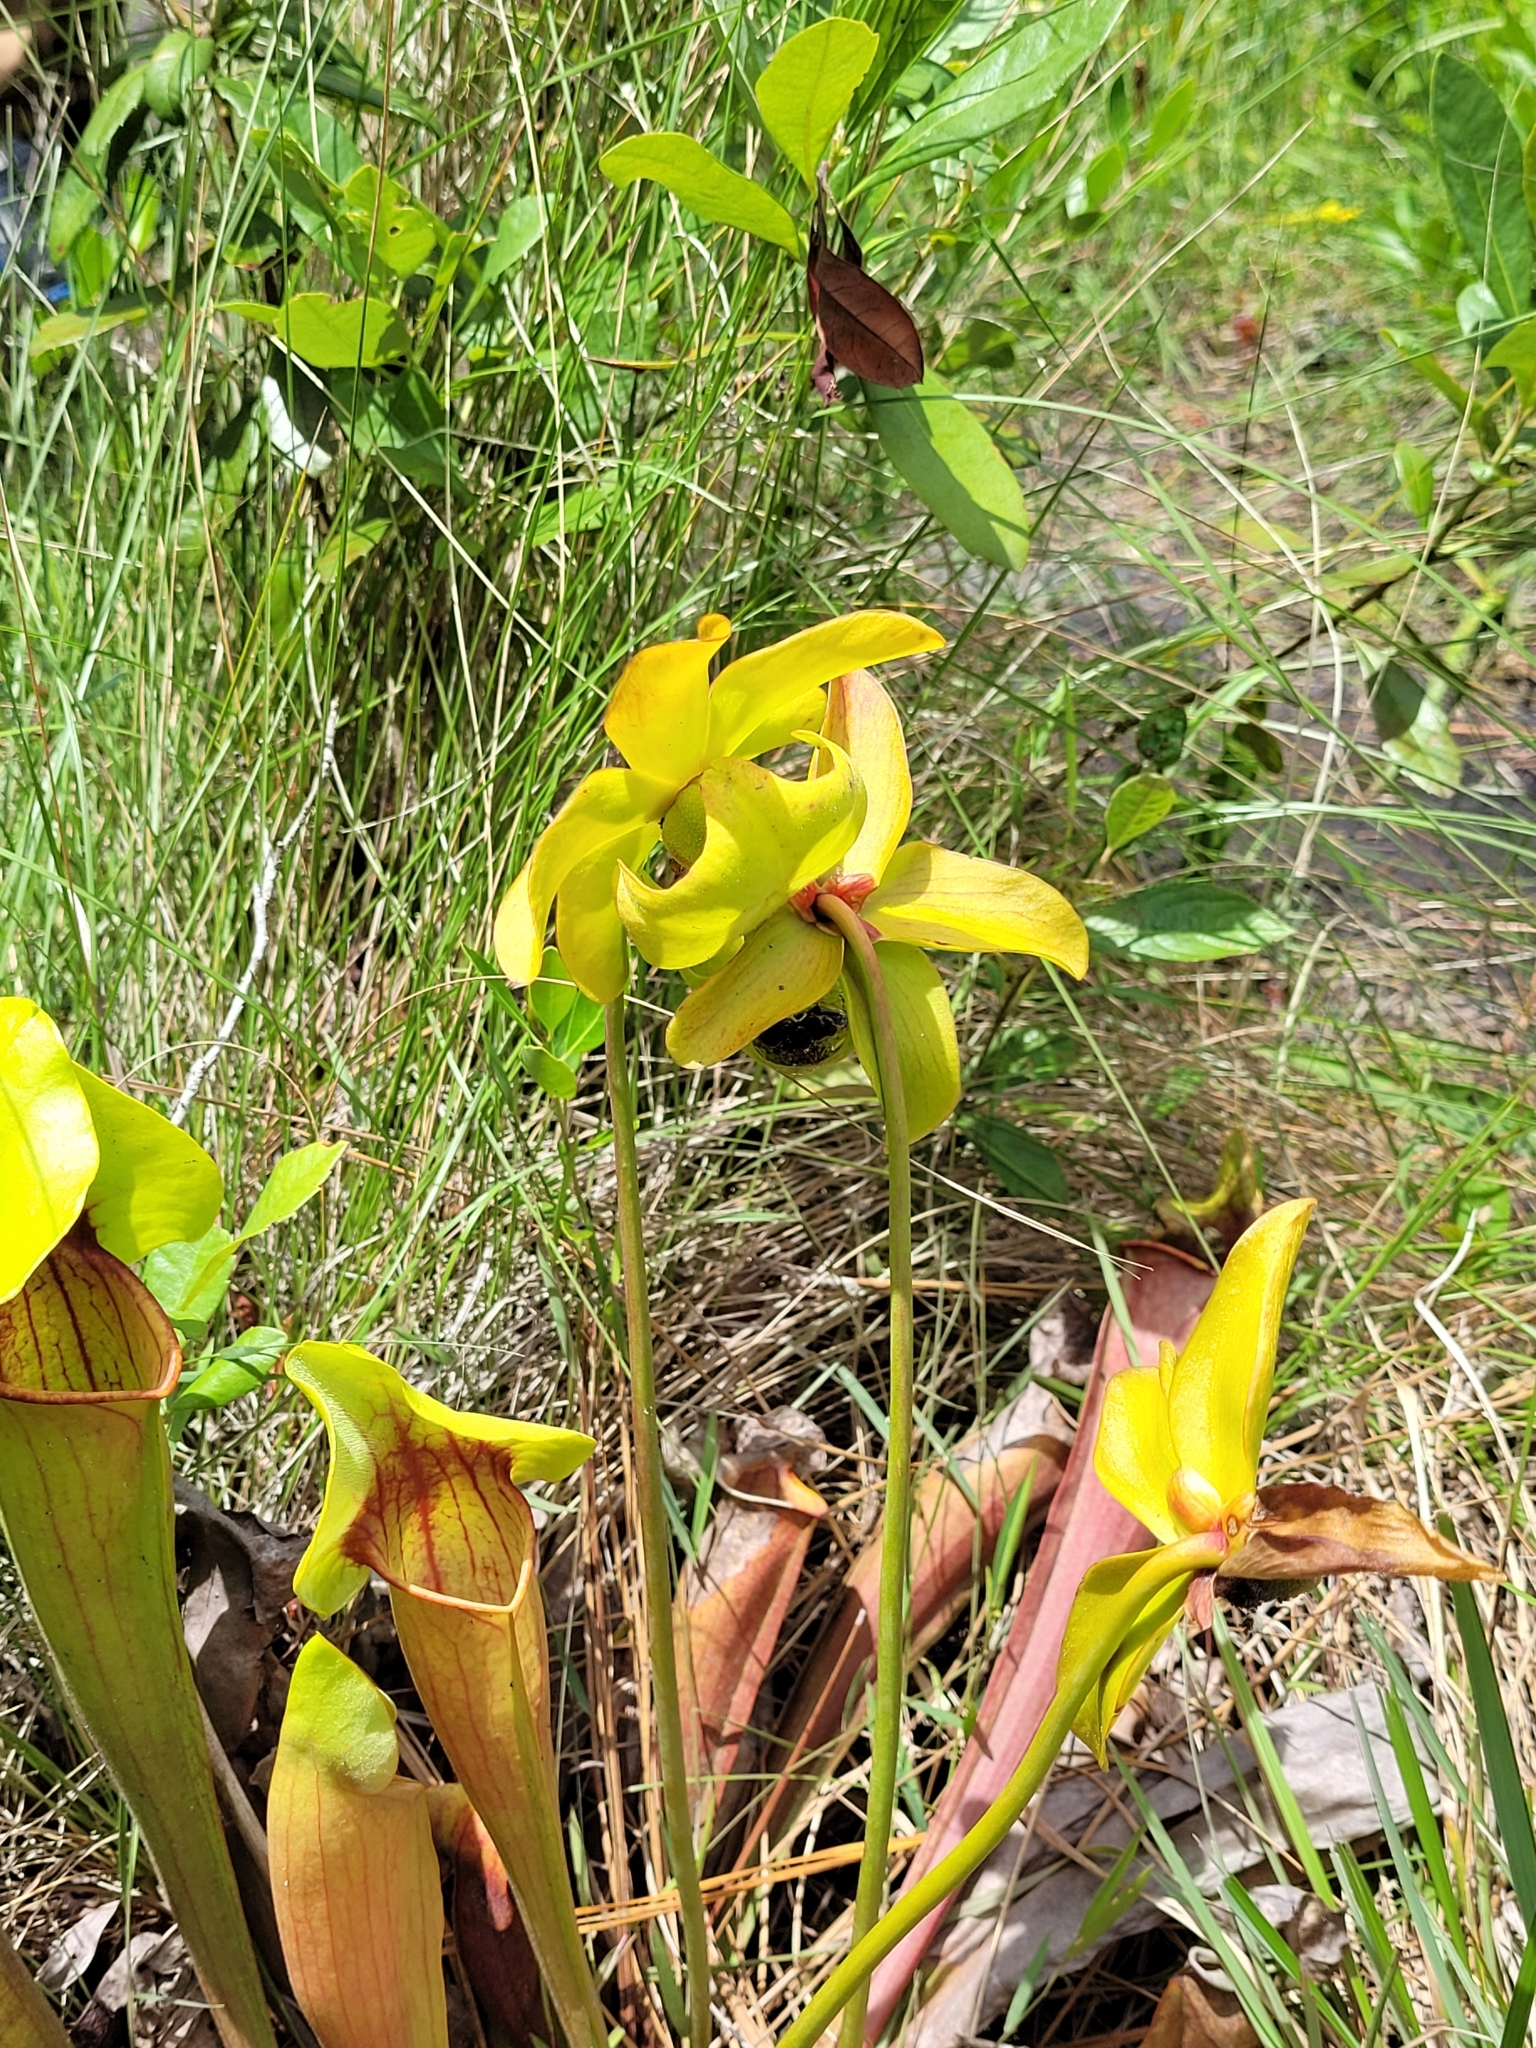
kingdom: Plantae
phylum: Tracheophyta
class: Magnoliopsida
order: Ericales
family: Sarraceniaceae
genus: Sarracenia
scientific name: Sarracenia catesbaei
